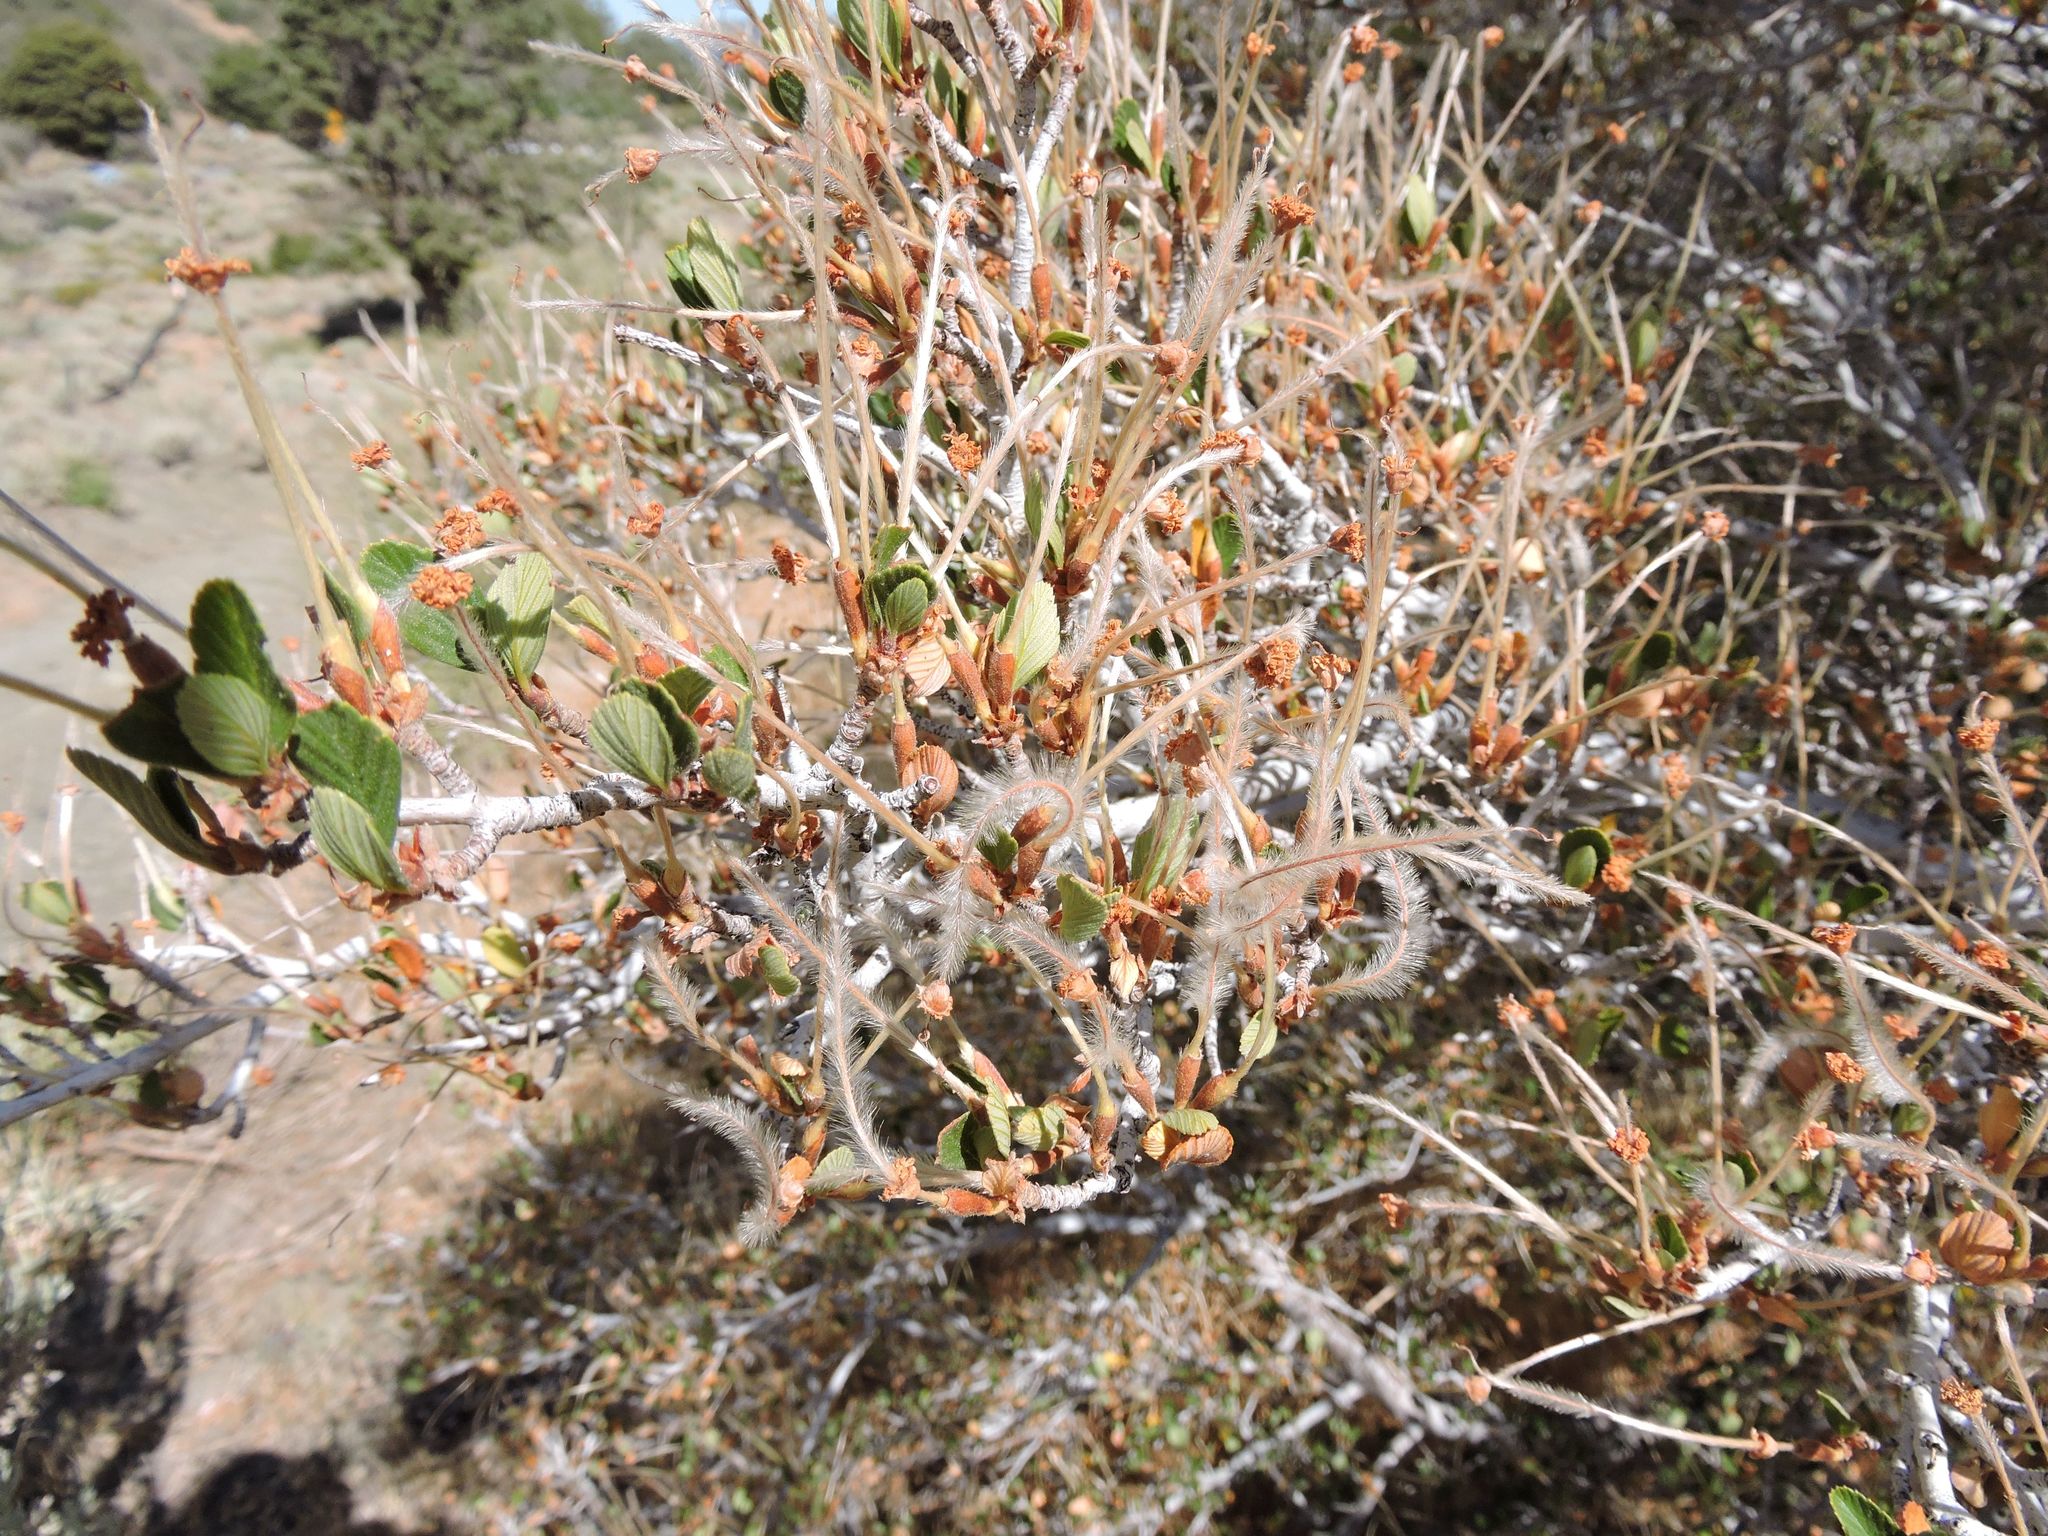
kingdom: Plantae
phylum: Tracheophyta
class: Magnoliopsida
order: Rosales
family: Rosaceae
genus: Cercocarpus
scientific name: Cercocarpus betuloides
